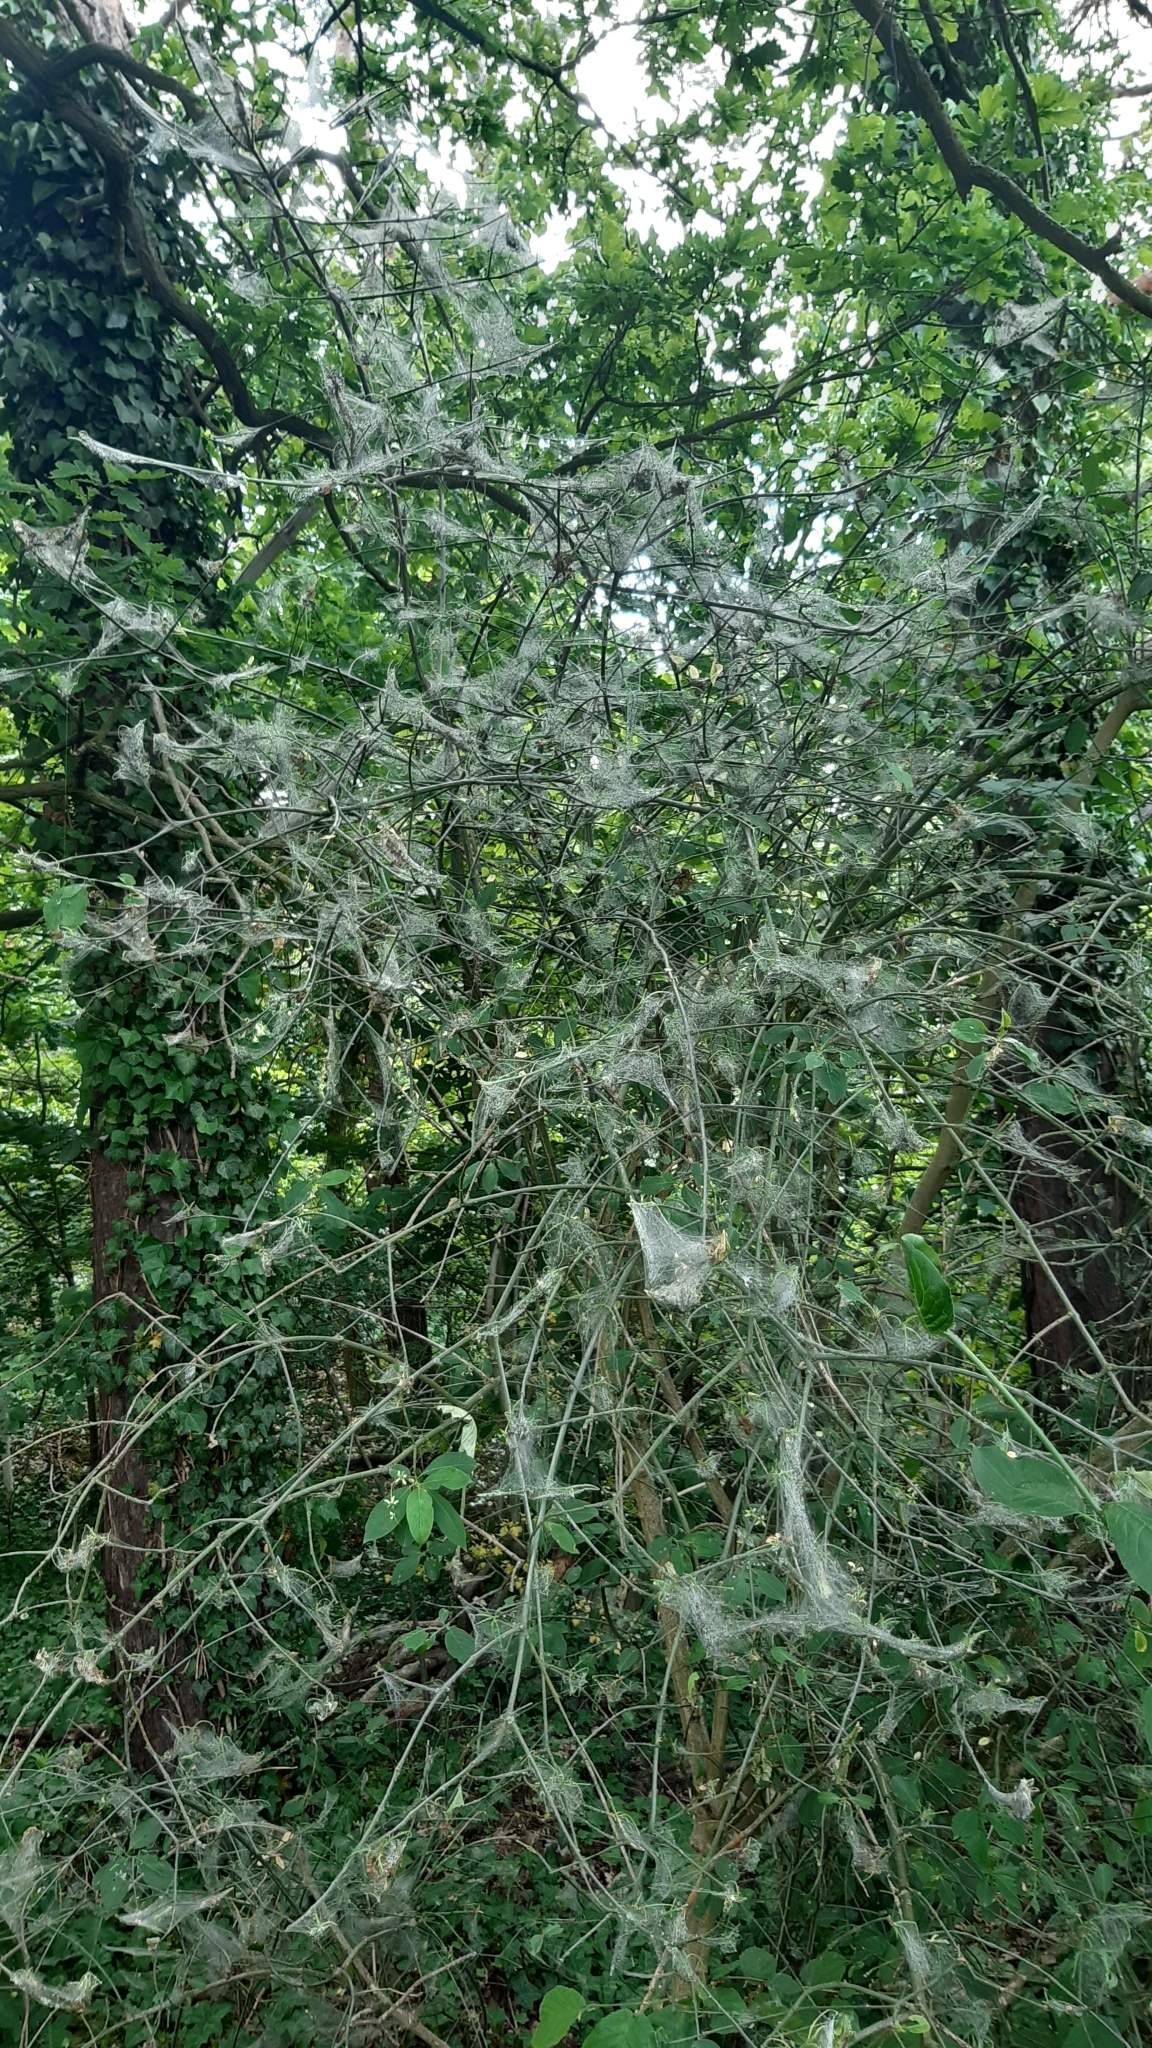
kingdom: Animalia
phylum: Arthropoda
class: Insecta
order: Lepidoptera
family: Yponomeutidae
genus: Yponomeuta
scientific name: Yponomeuta cagnagellus
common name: Spindle ermine
